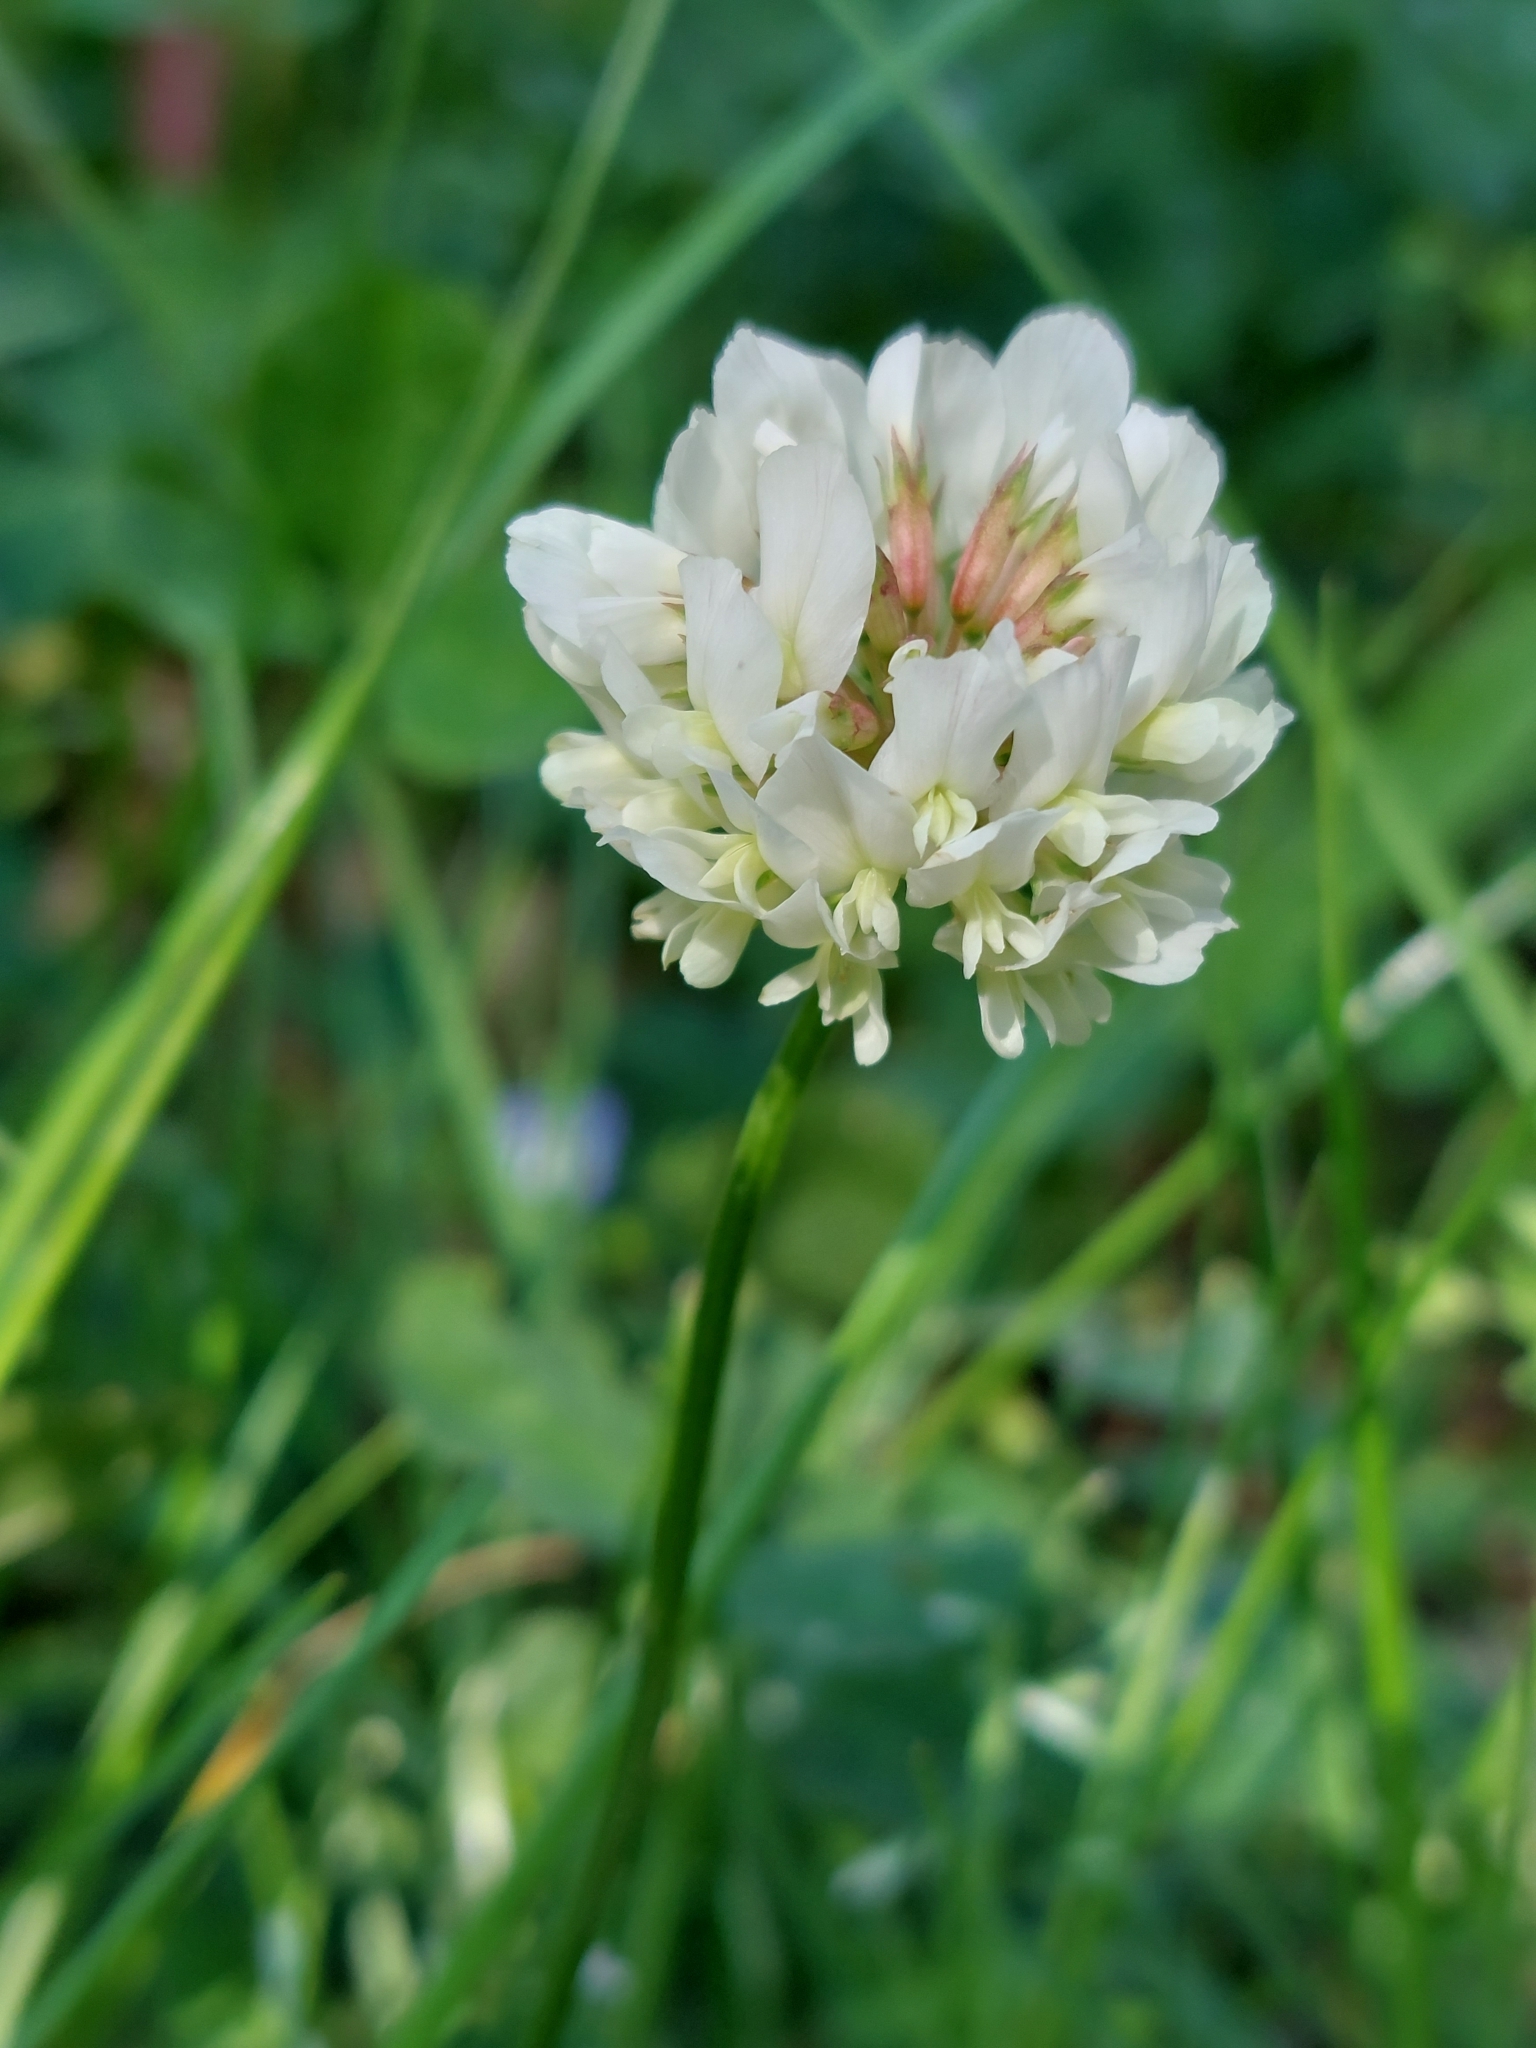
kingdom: Plantae
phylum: Tracheophyta
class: Magnoliopsida
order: Fabales
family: Fabaceae
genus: Trifolium
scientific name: Trifolium repens
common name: White clover
